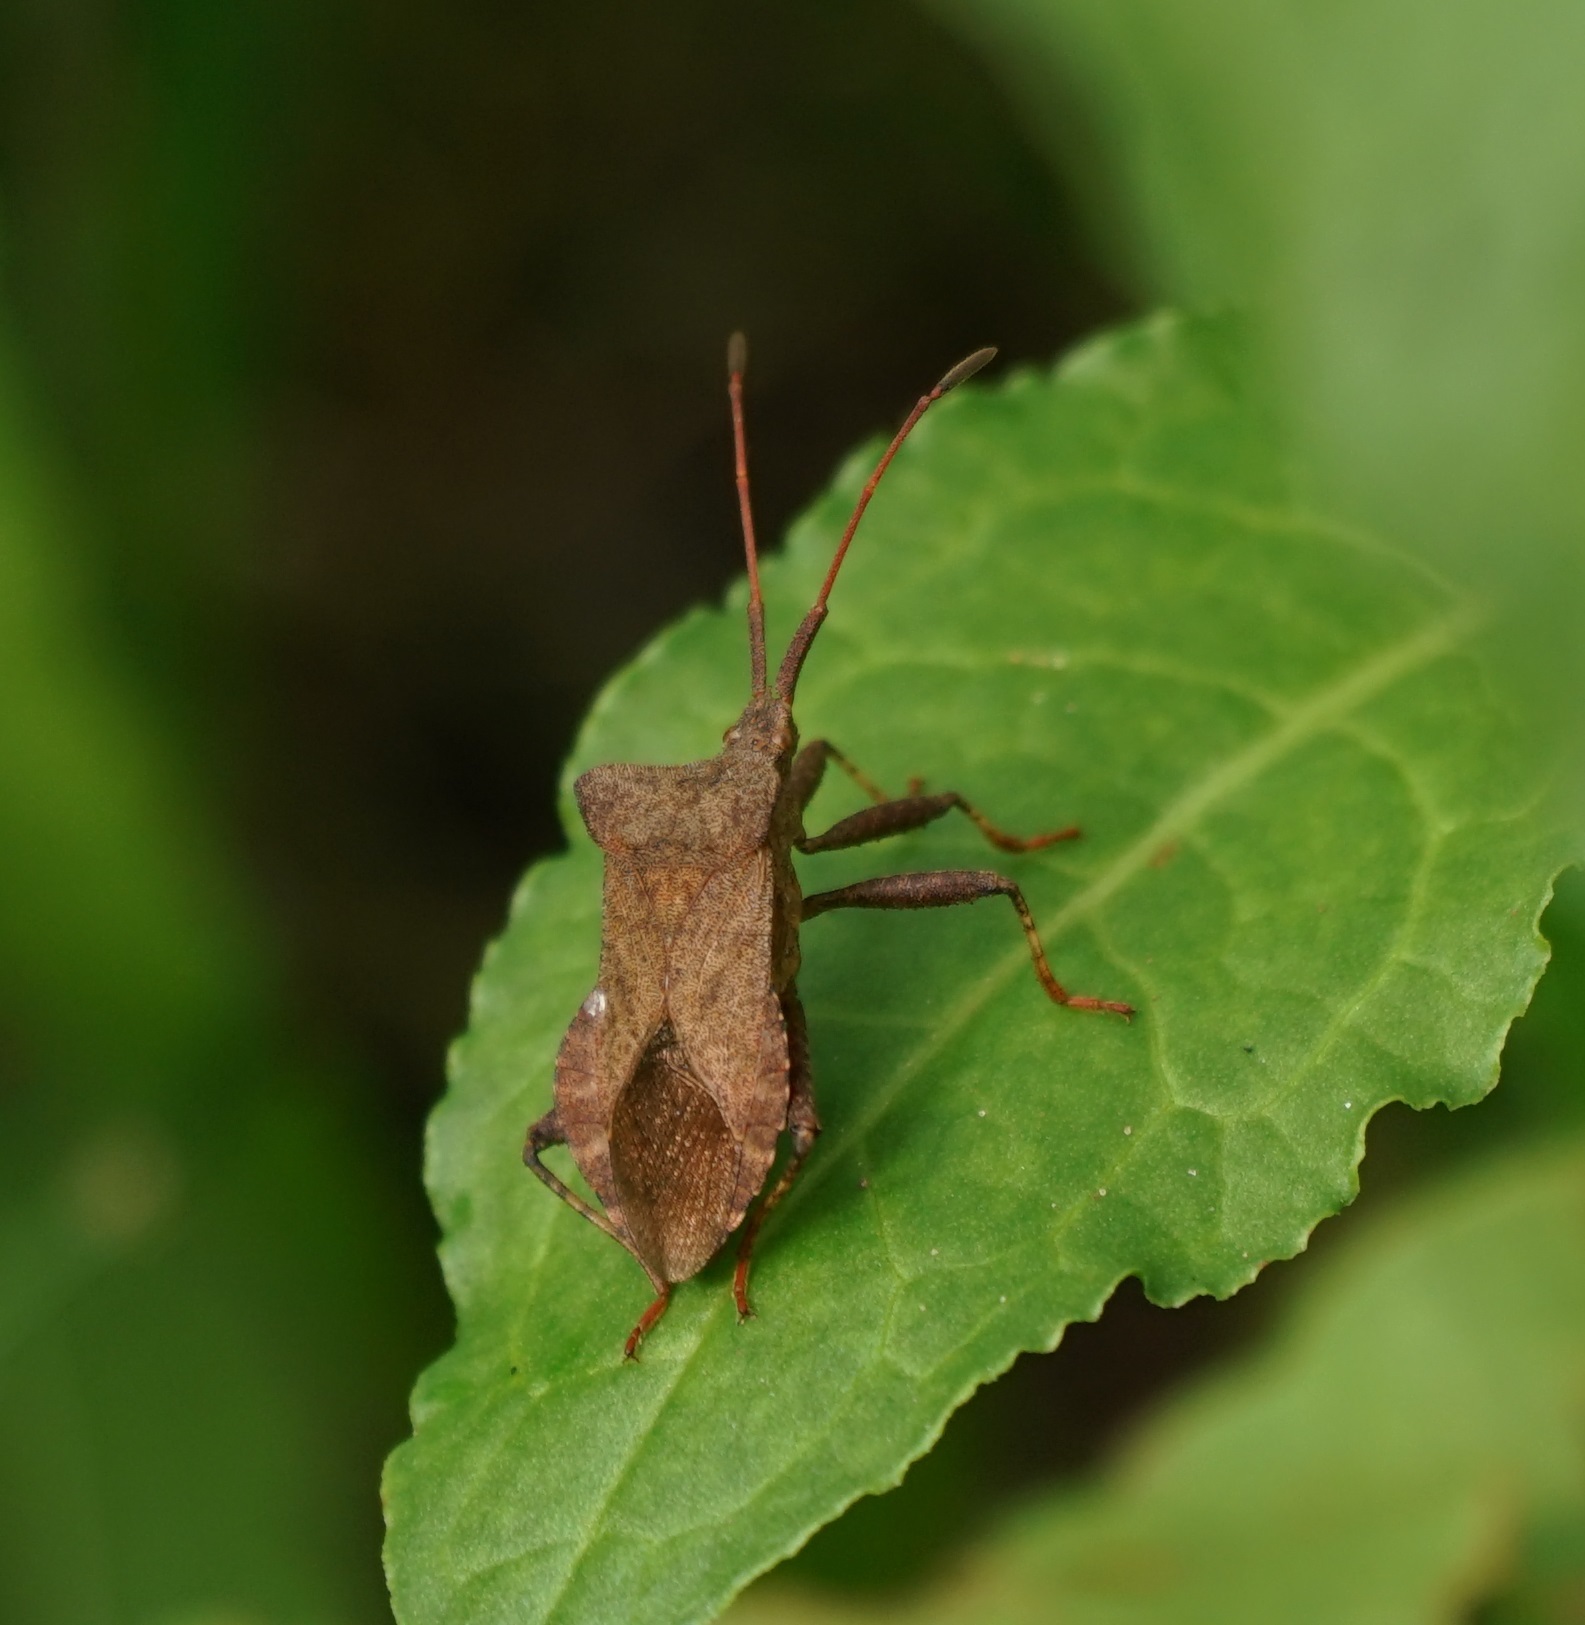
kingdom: Animalia
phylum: Arthropoda
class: Insecta
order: Hemiptera
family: Coreidae
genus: Coreus
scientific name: Coreus marginatus
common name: Dock bug
